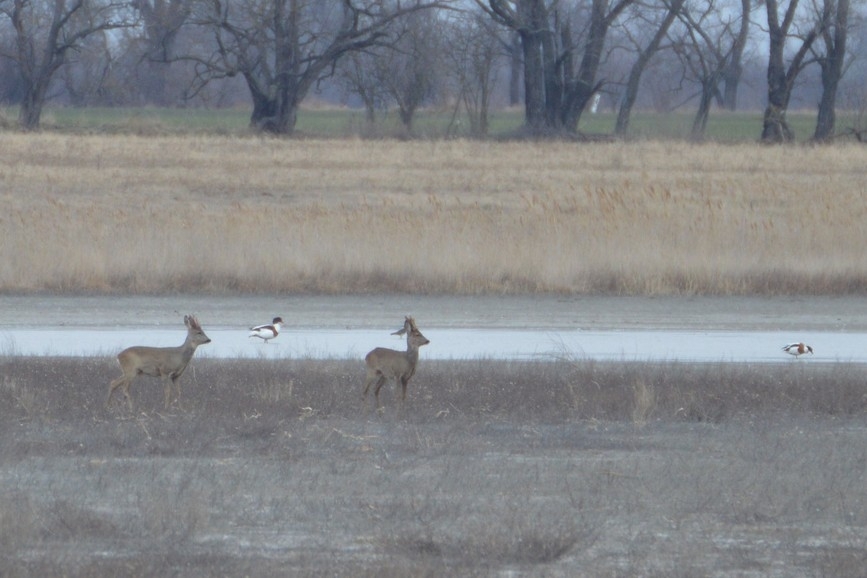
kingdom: Animalia
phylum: Chordata
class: Aves
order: Anseriformes
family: Anatidae
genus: Tadorna
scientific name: Tadorna tadorna
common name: Common shelduck
